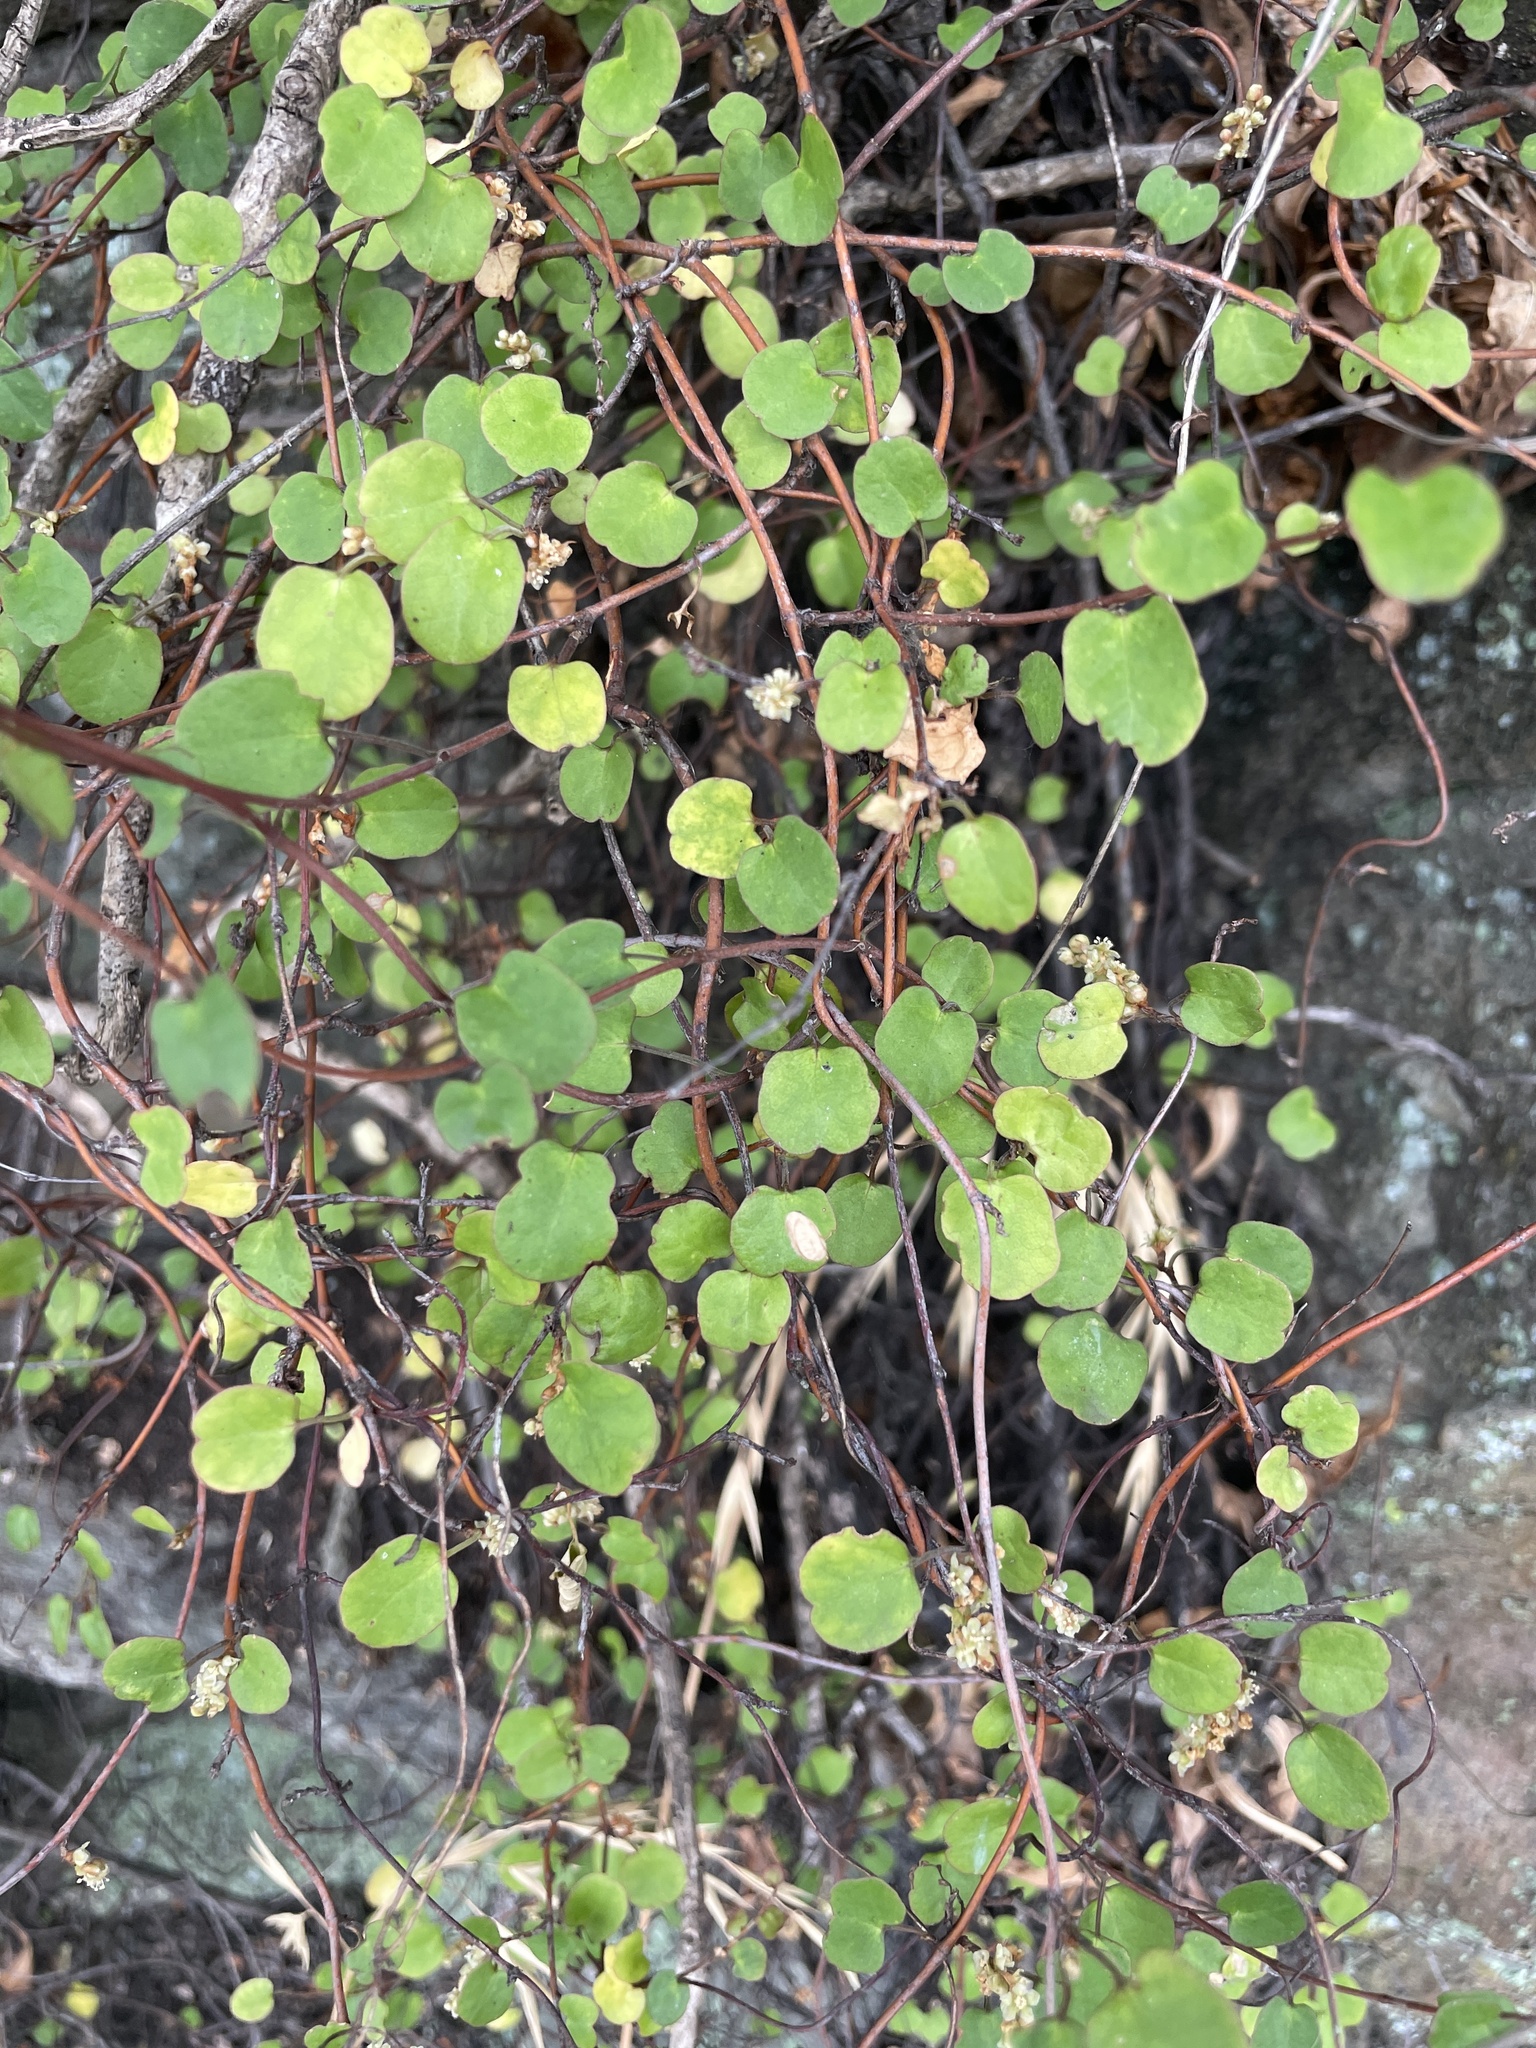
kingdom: Plantae
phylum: Tracheophyta
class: Magnoliopsida
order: Caryophyllales
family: Polygonaceae
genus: Muehlenbeckia
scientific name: Muehlenbeckia complexa
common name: Wireplant
